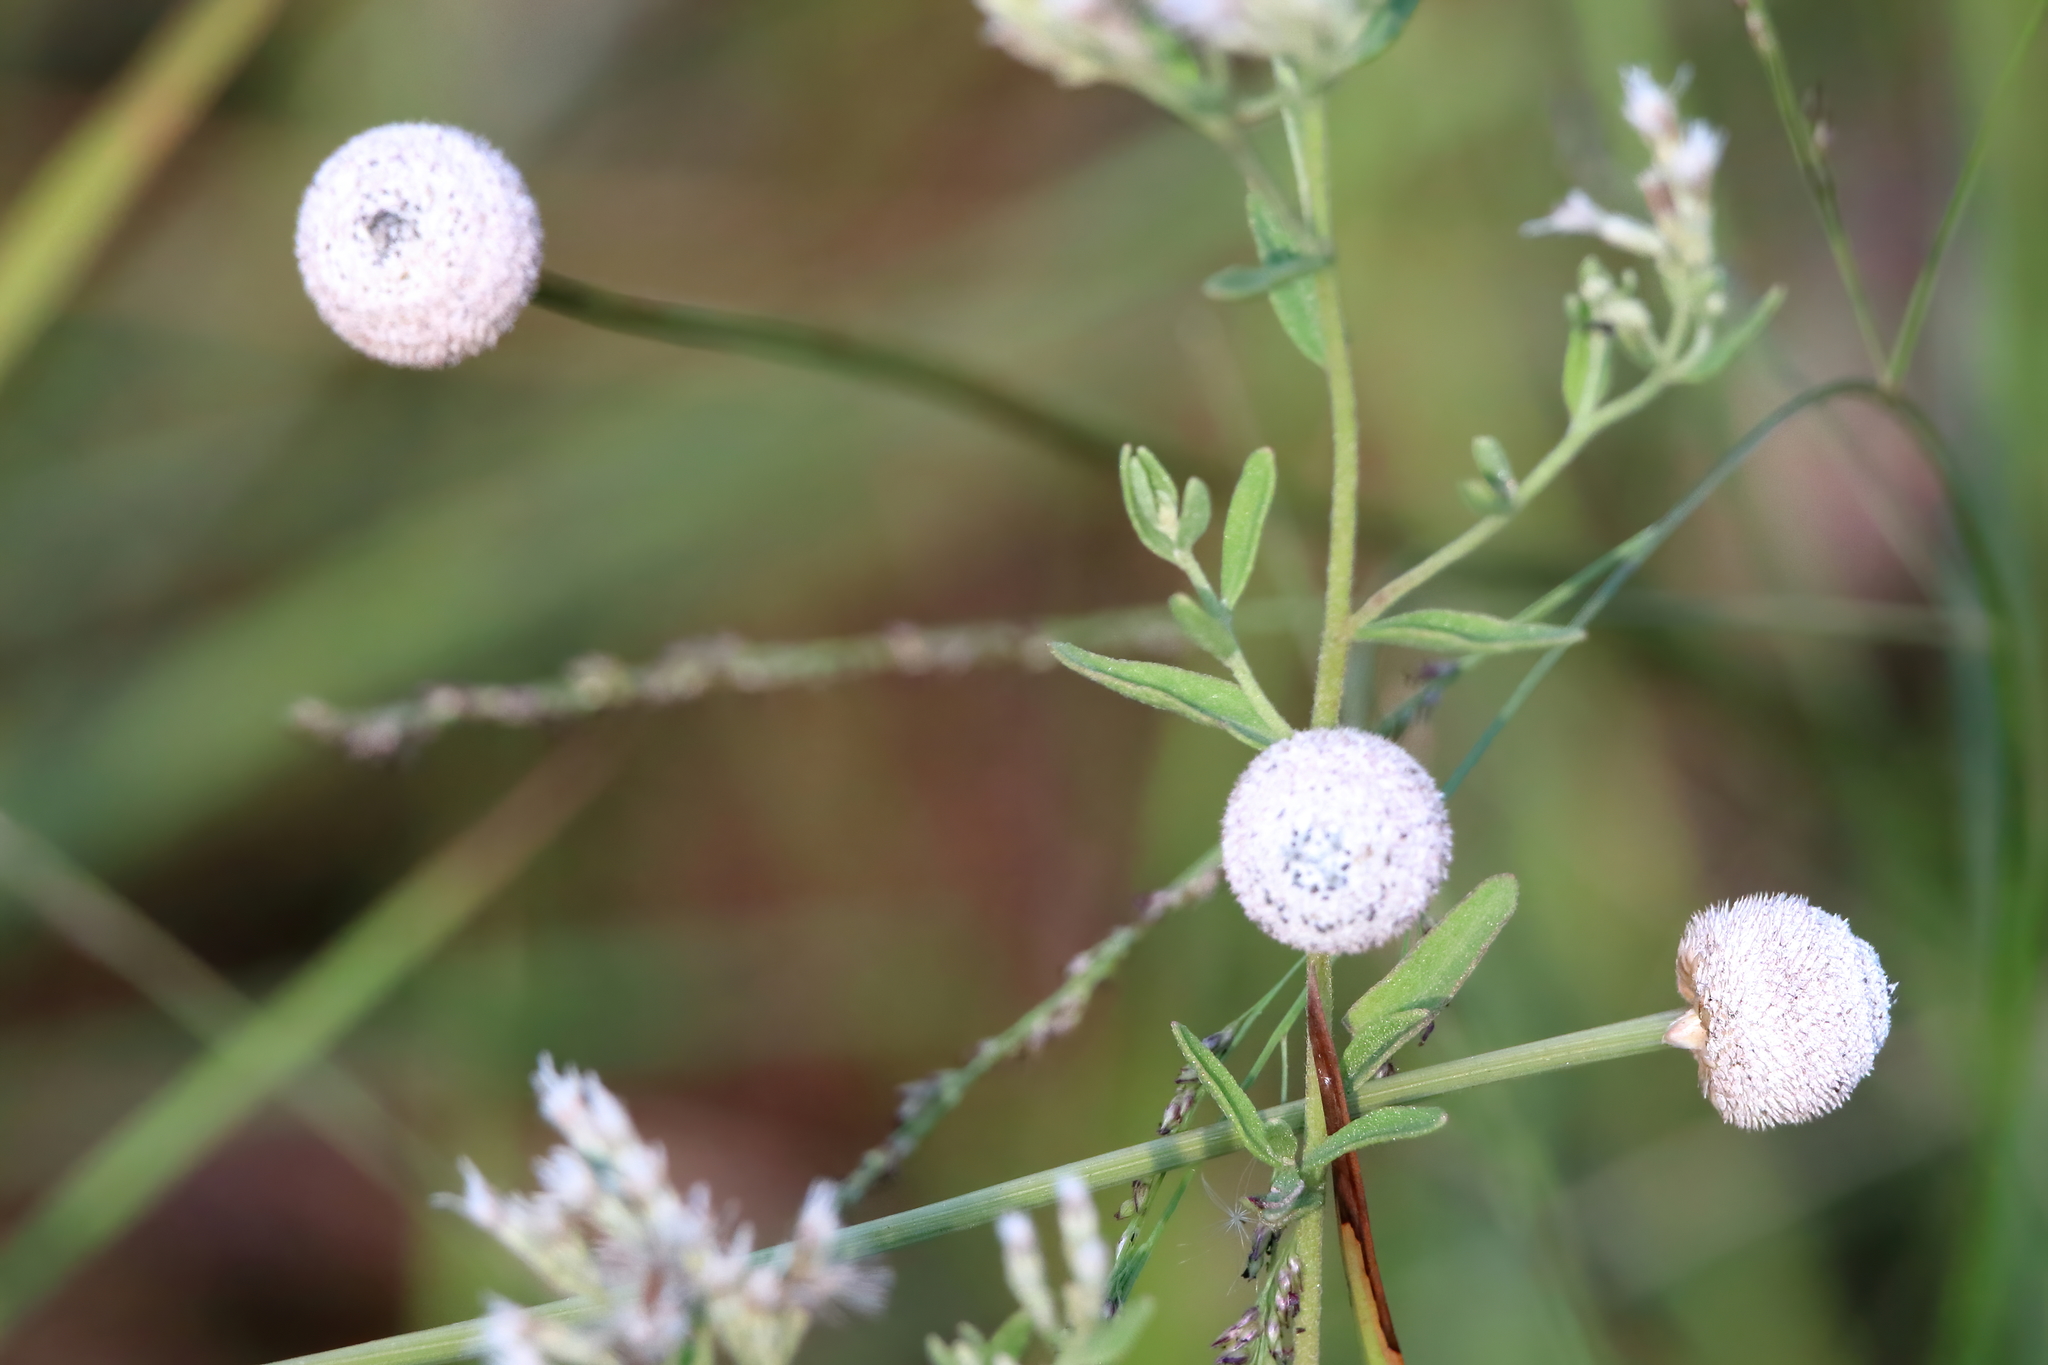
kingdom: Plantae
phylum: Tracheophyta
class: Liliopsida
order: Poales
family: Eriocaulaceae
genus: Eriocaulon
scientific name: Eriocaulon decangulare
